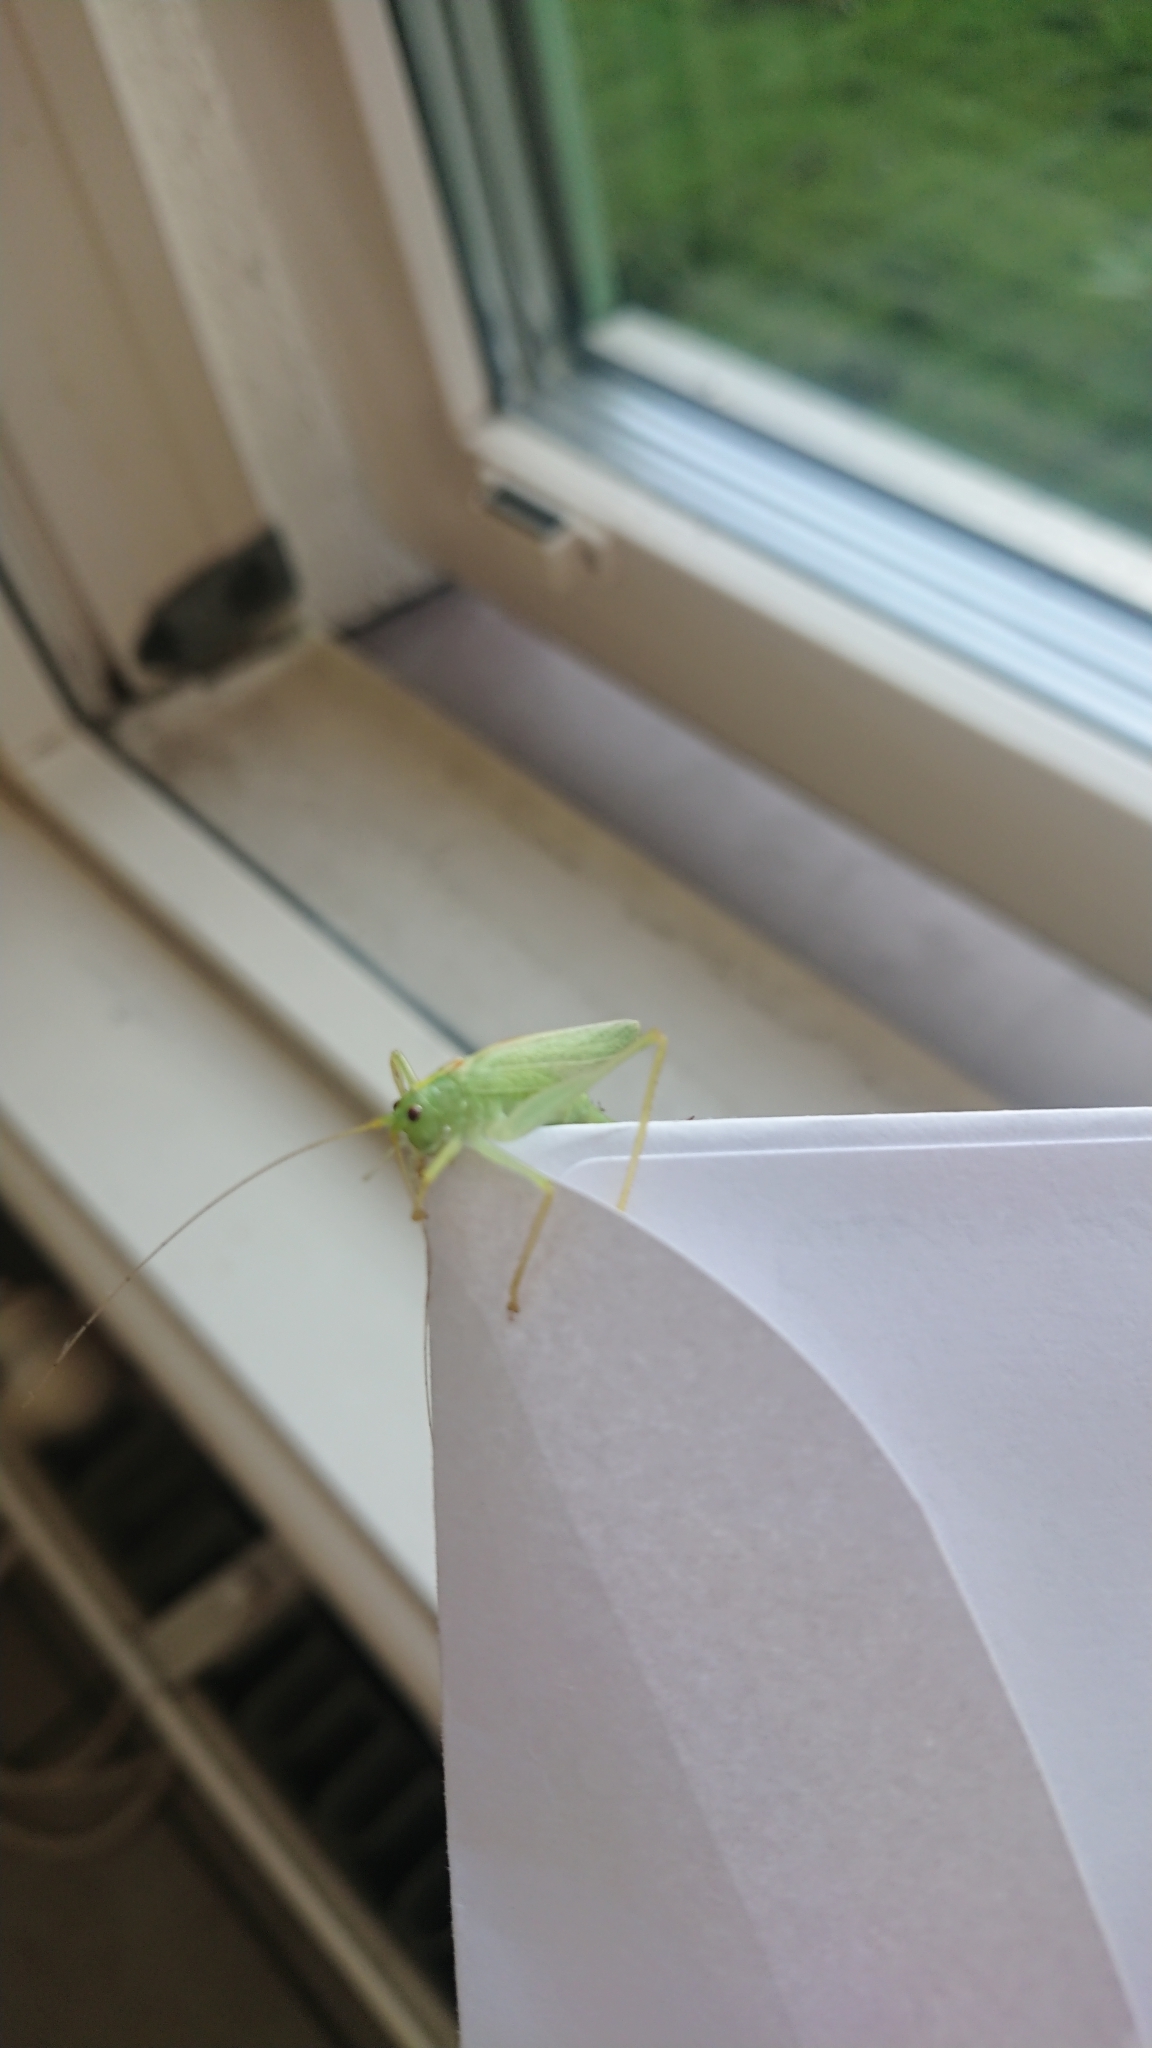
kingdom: Animalia
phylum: Arthropoda
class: Insecta
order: Orthoptera
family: Tettigoniidae
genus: Meconema
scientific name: Meconema thalassinum
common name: Oak bush-cricket
